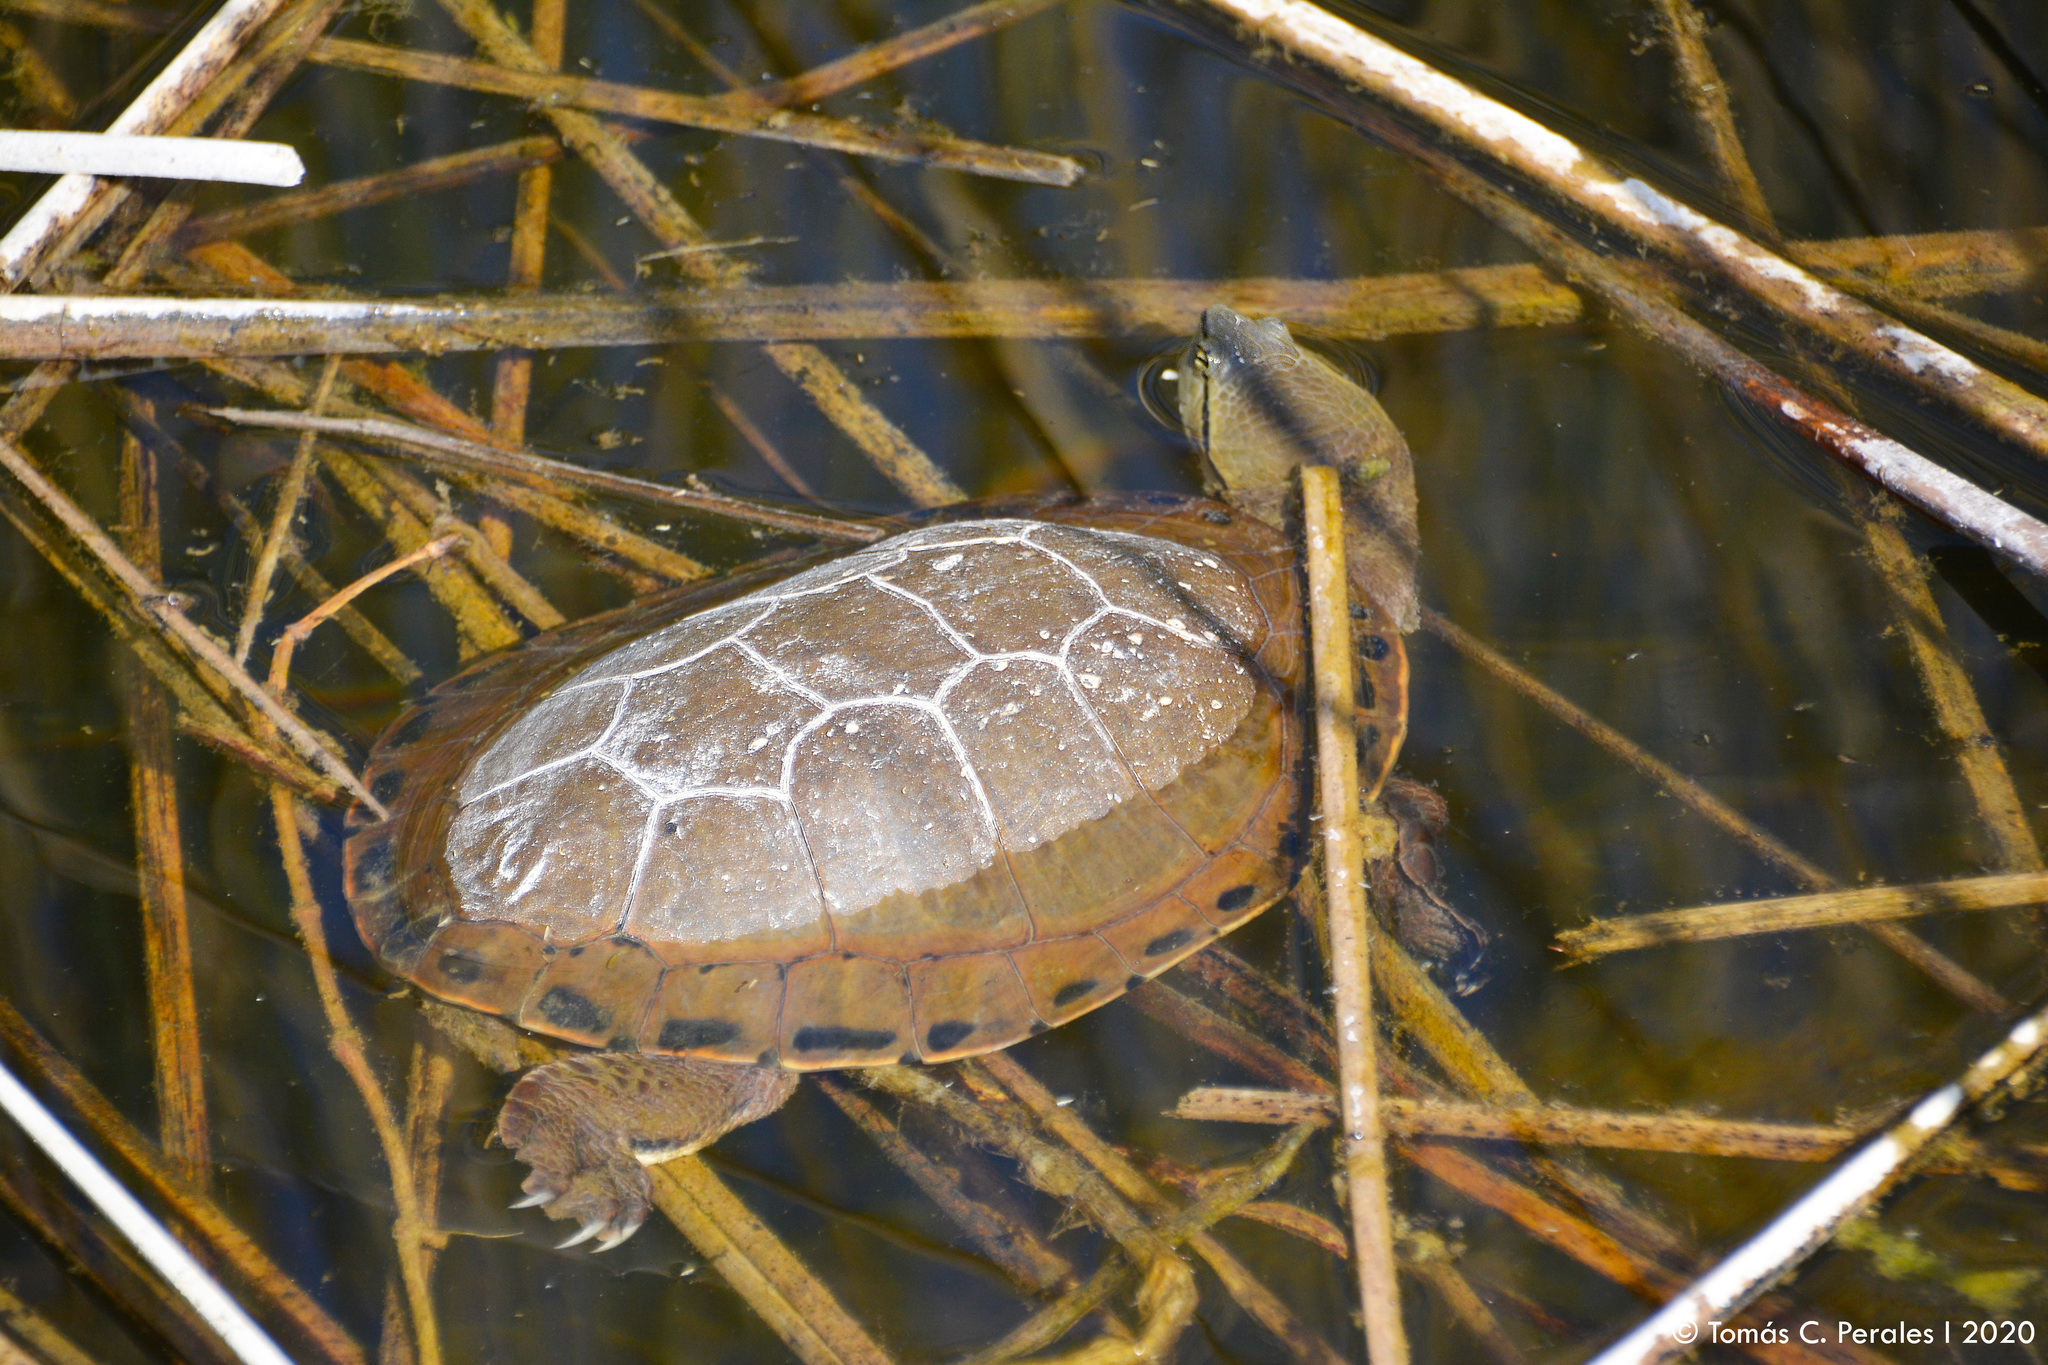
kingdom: Animalia
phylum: Chordata
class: Testudines
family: Chelidae
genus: Phrynops
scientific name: Phrynops hilarii
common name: Side-necked turtle of saint hillaire
